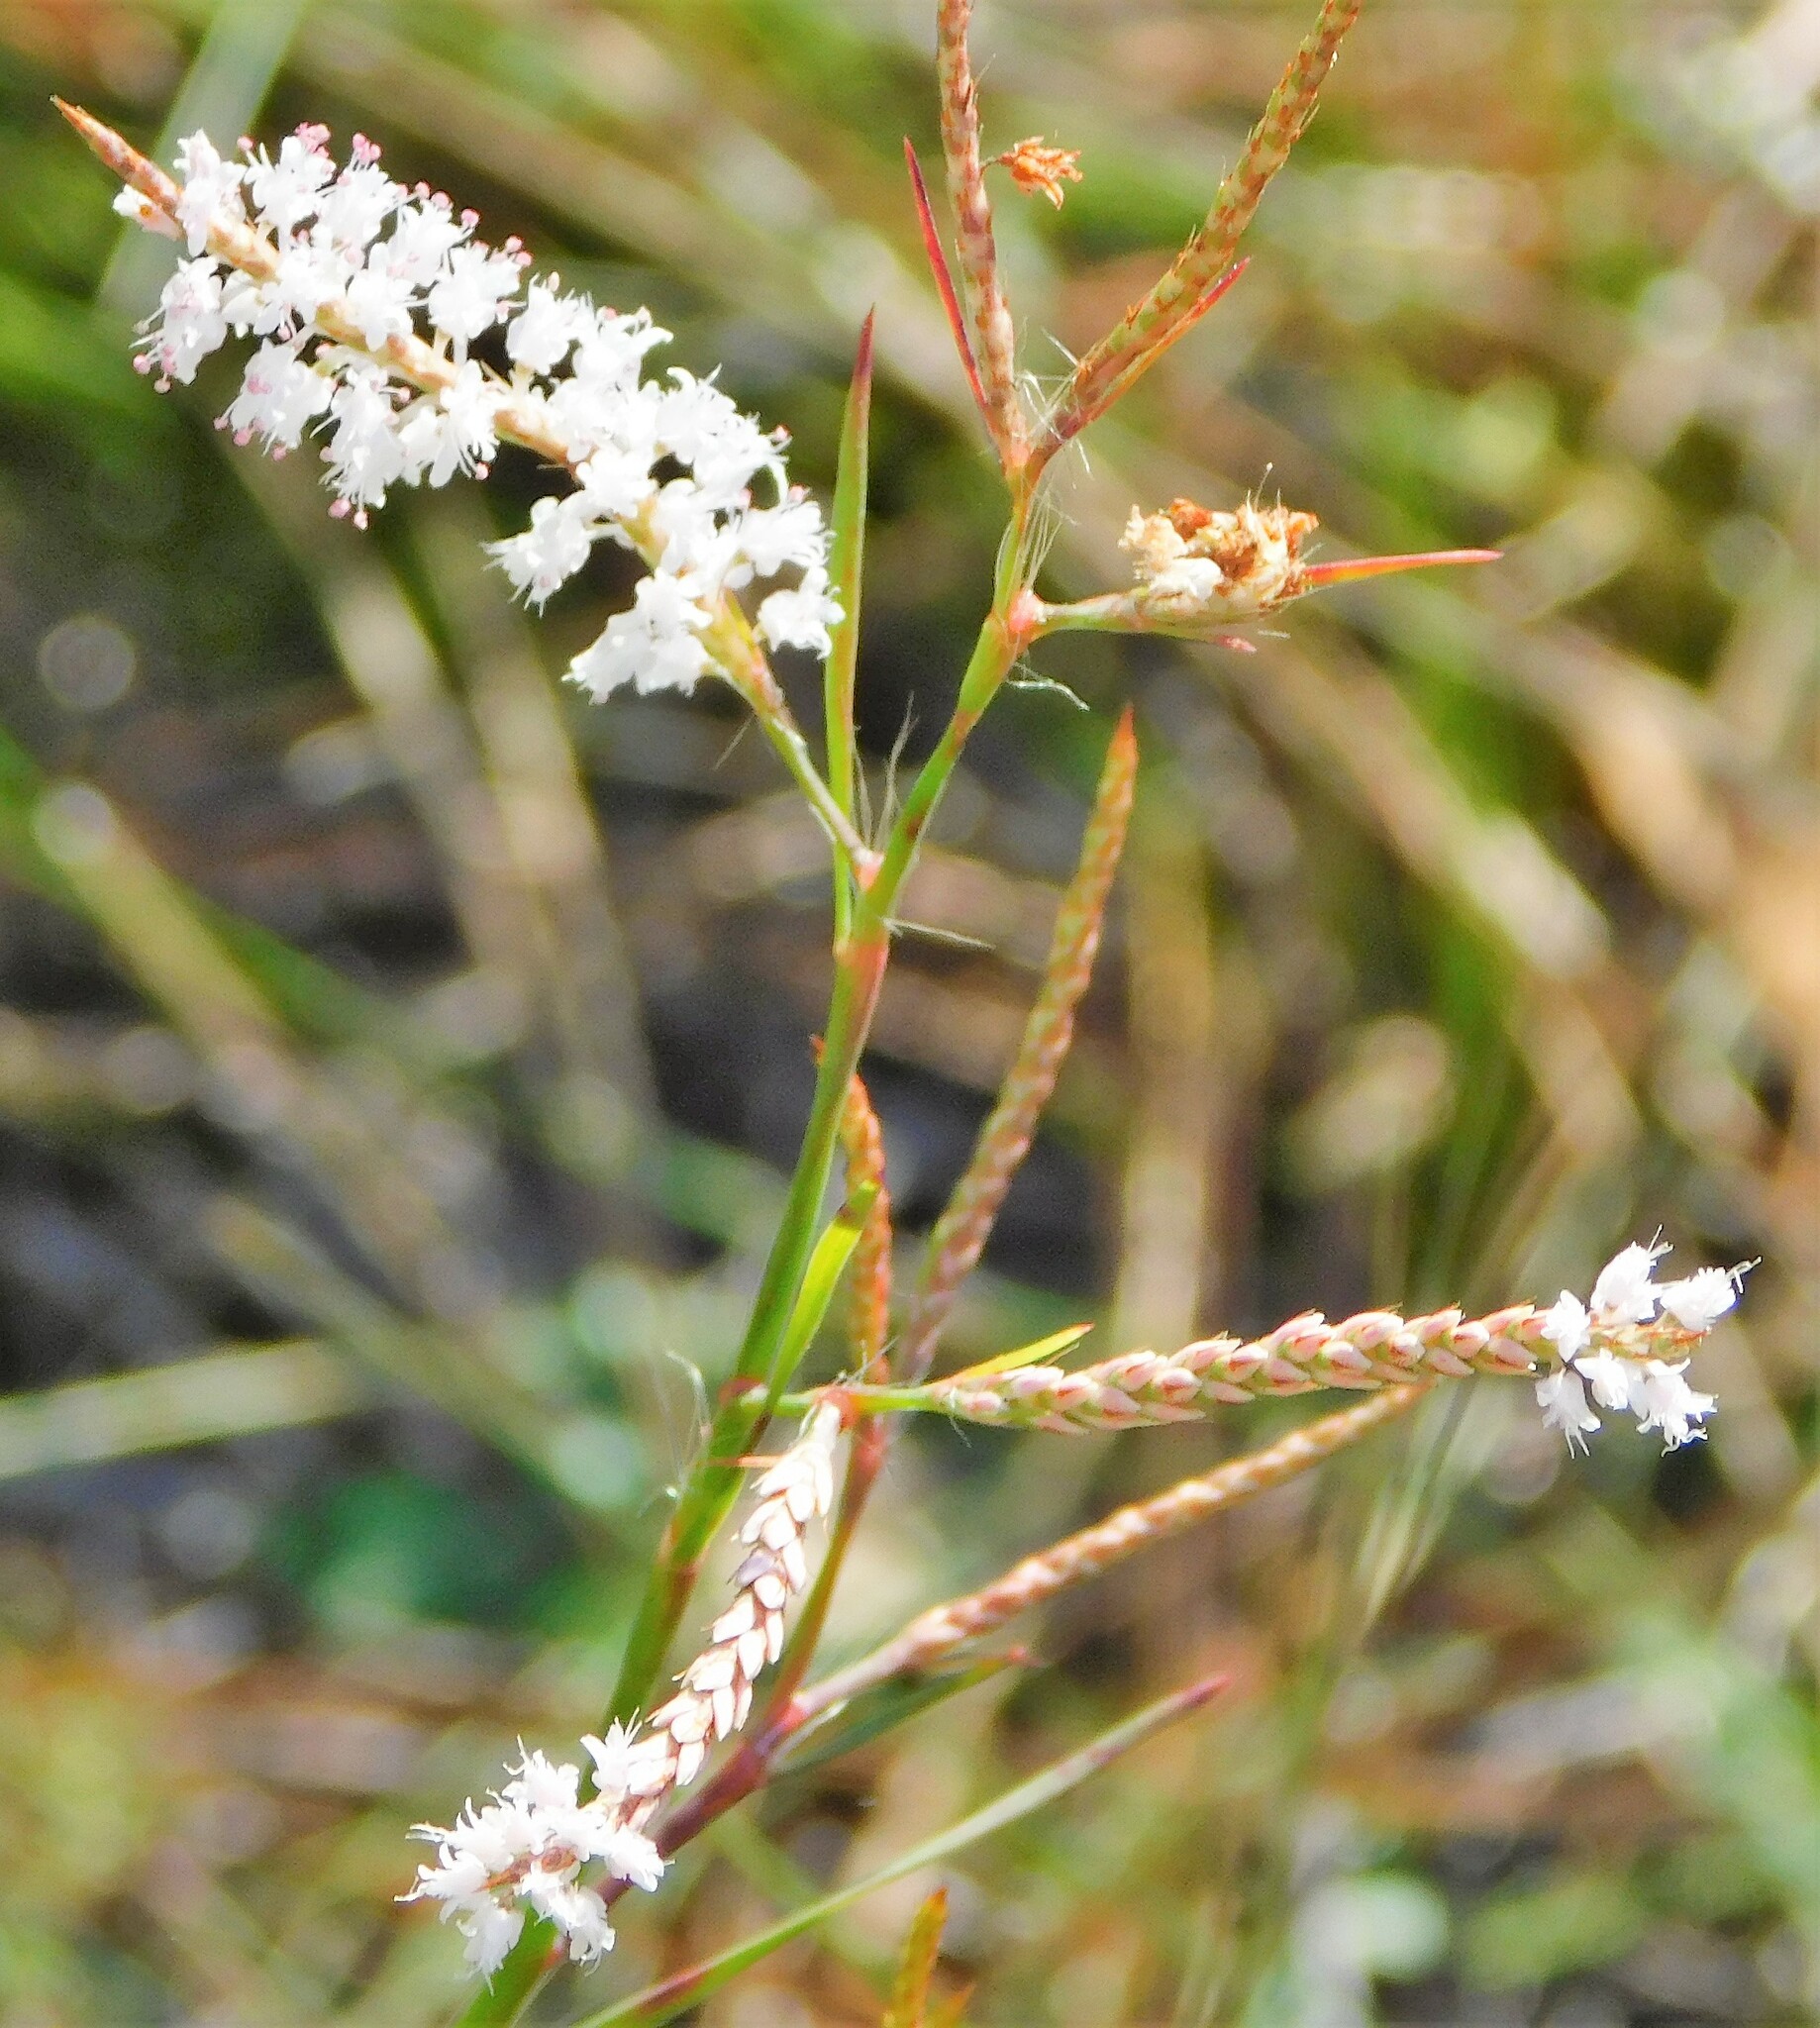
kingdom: Plantae
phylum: Tracheophyta
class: Magnoliopsida
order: Caryophyllales
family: Polygonaceae
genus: Polygonella
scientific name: Polygonella polygama
